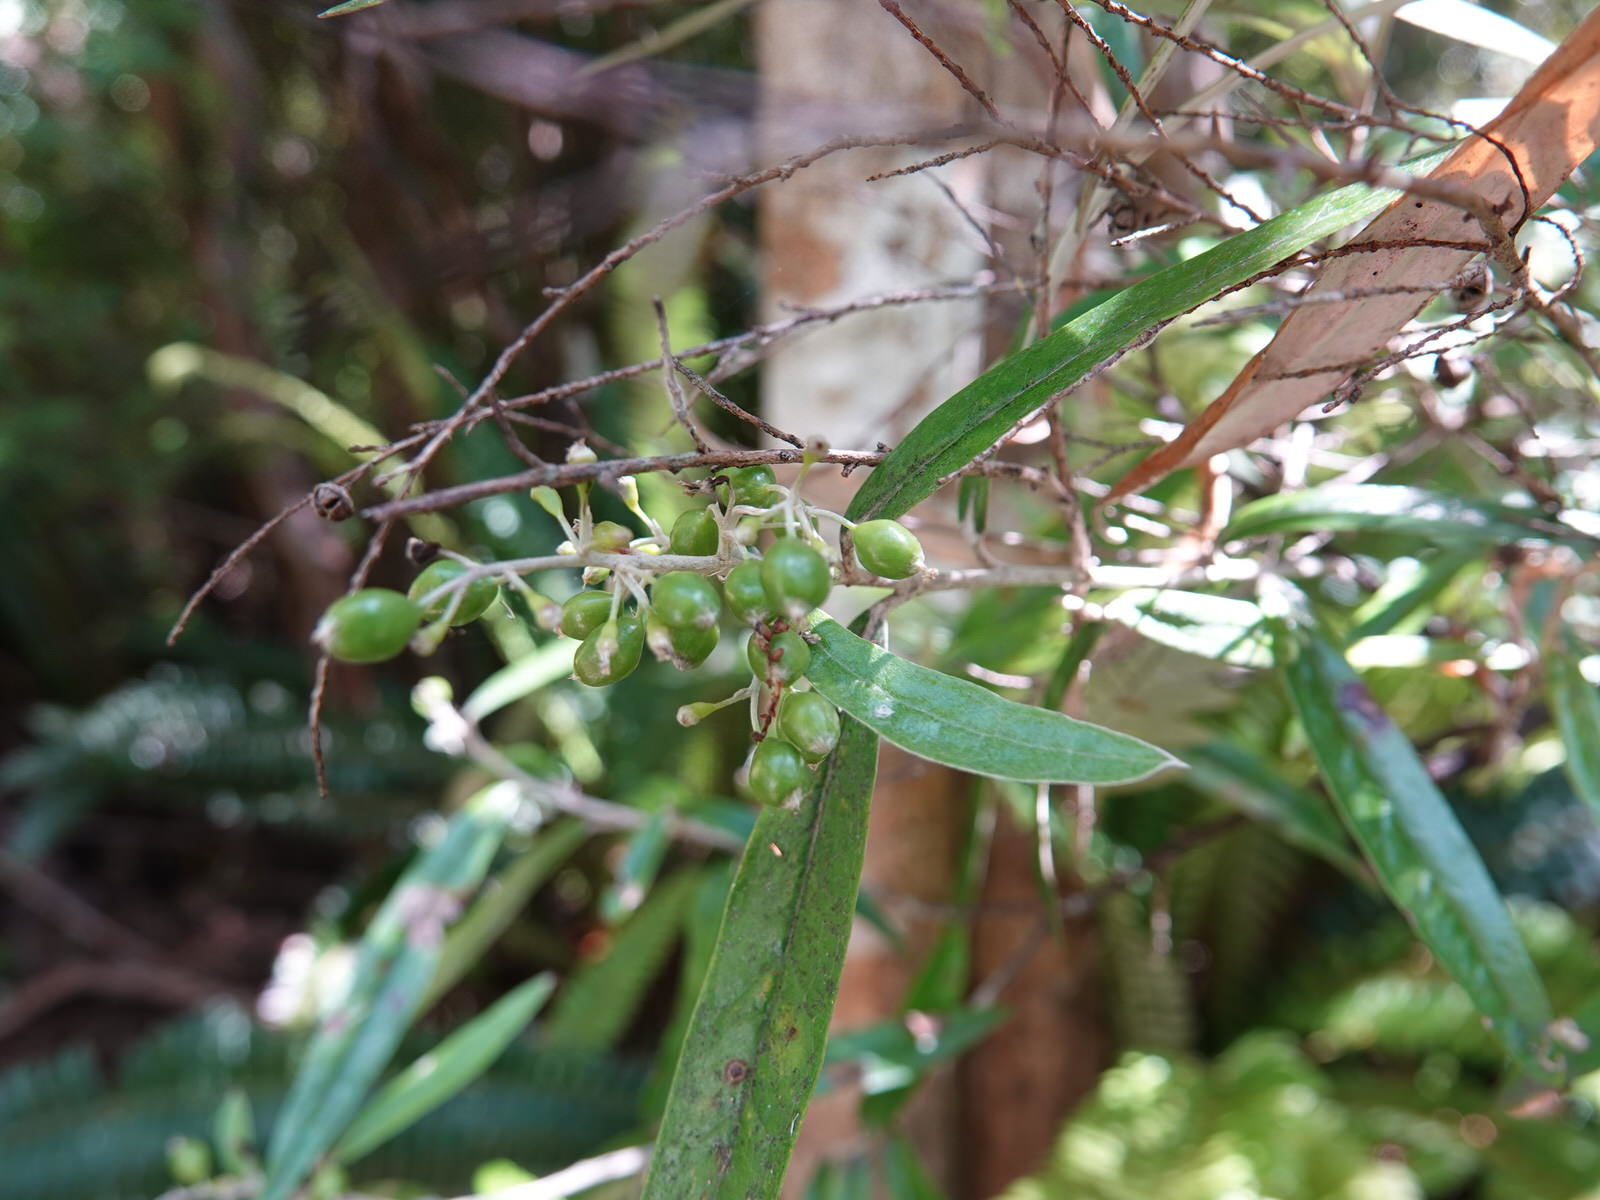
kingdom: Plantae
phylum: Tracheophyta
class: Magnoliopsida
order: Asterales
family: Argophyllaceae
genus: Corokia
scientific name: Corokia buddleioides
